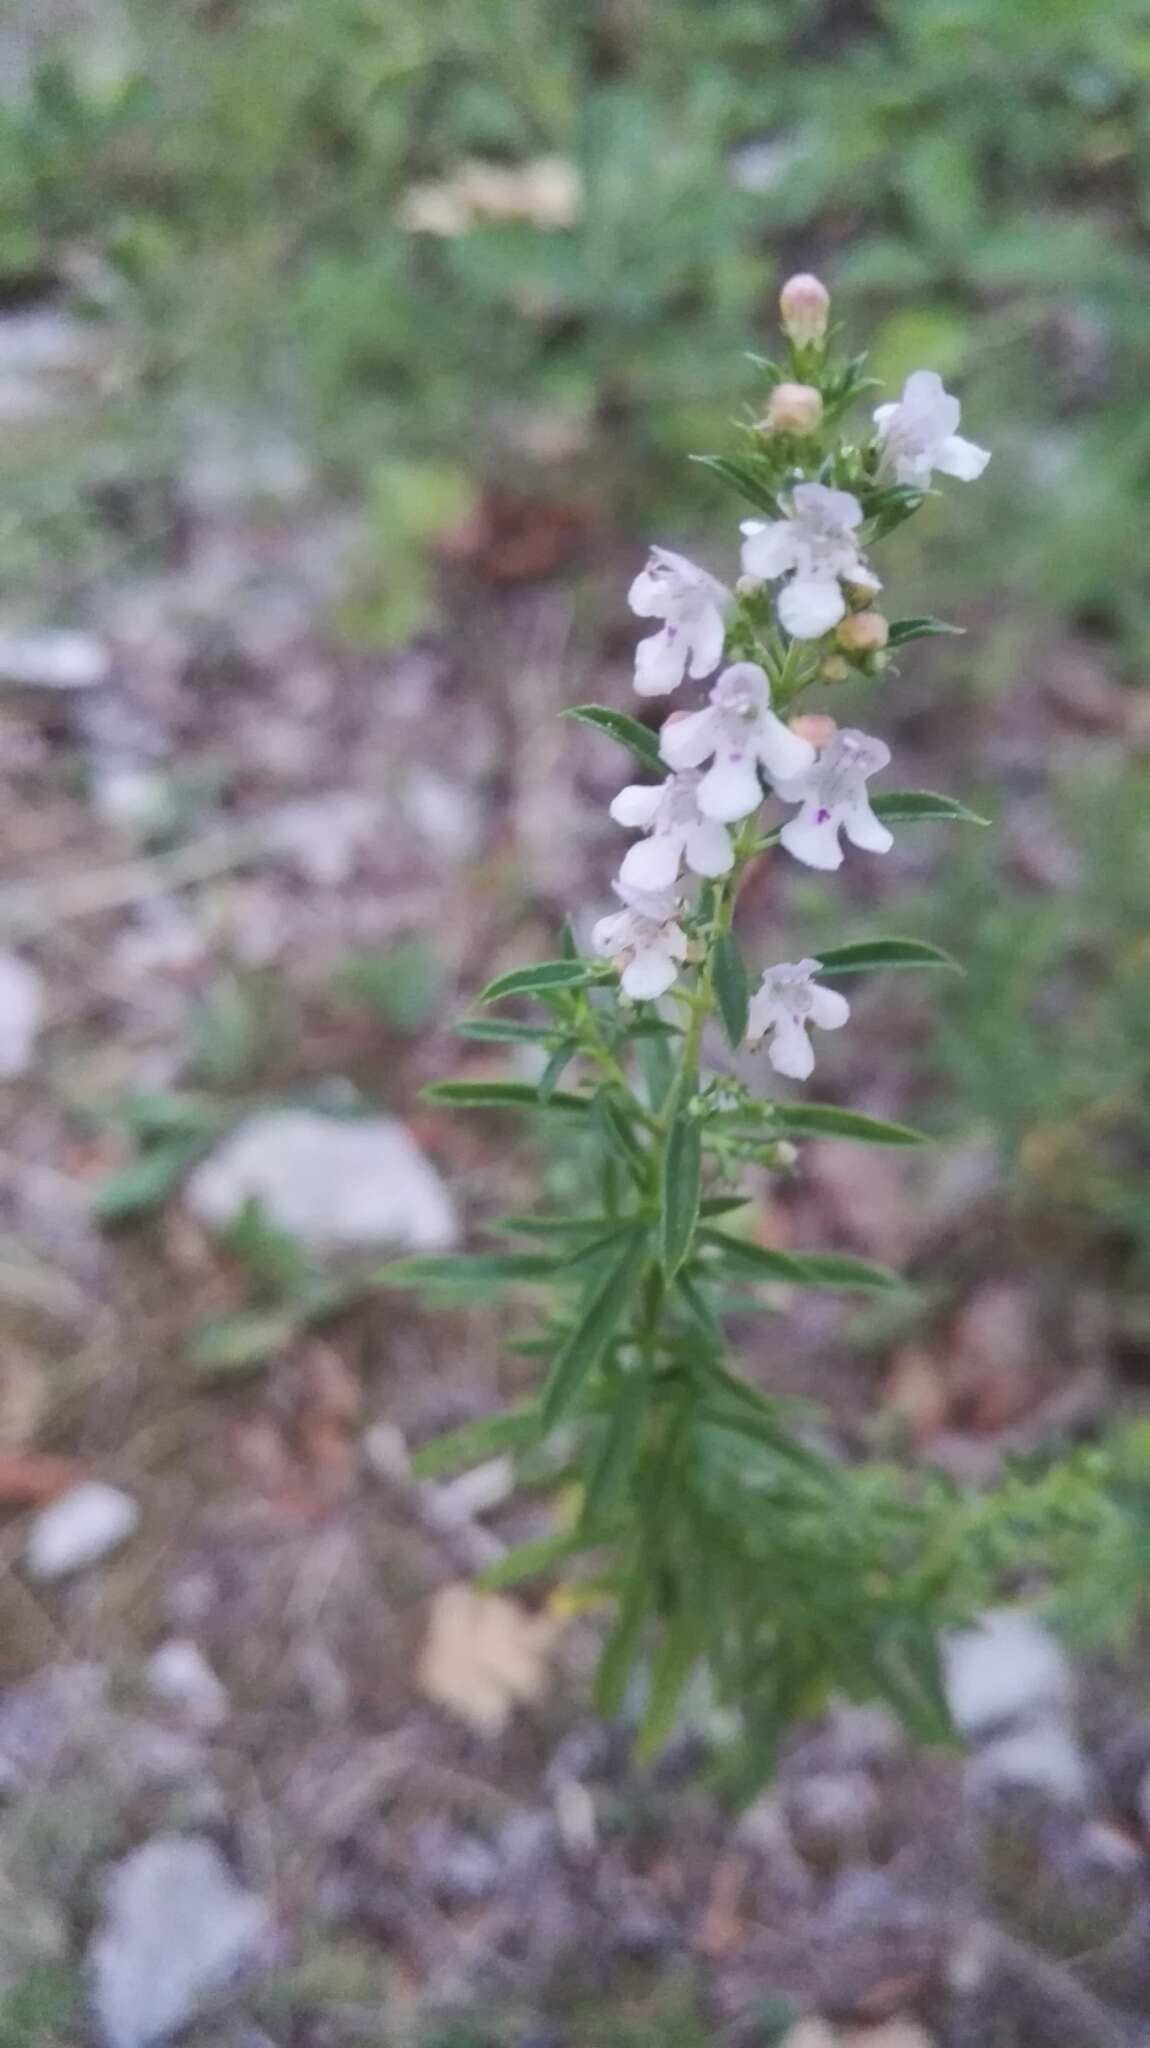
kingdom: Plantae
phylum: Tracheophyta
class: Magnoliopsida
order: Lamiales
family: Lamiaceae
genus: Satureja
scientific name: Satureja montana
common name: Winter savory
